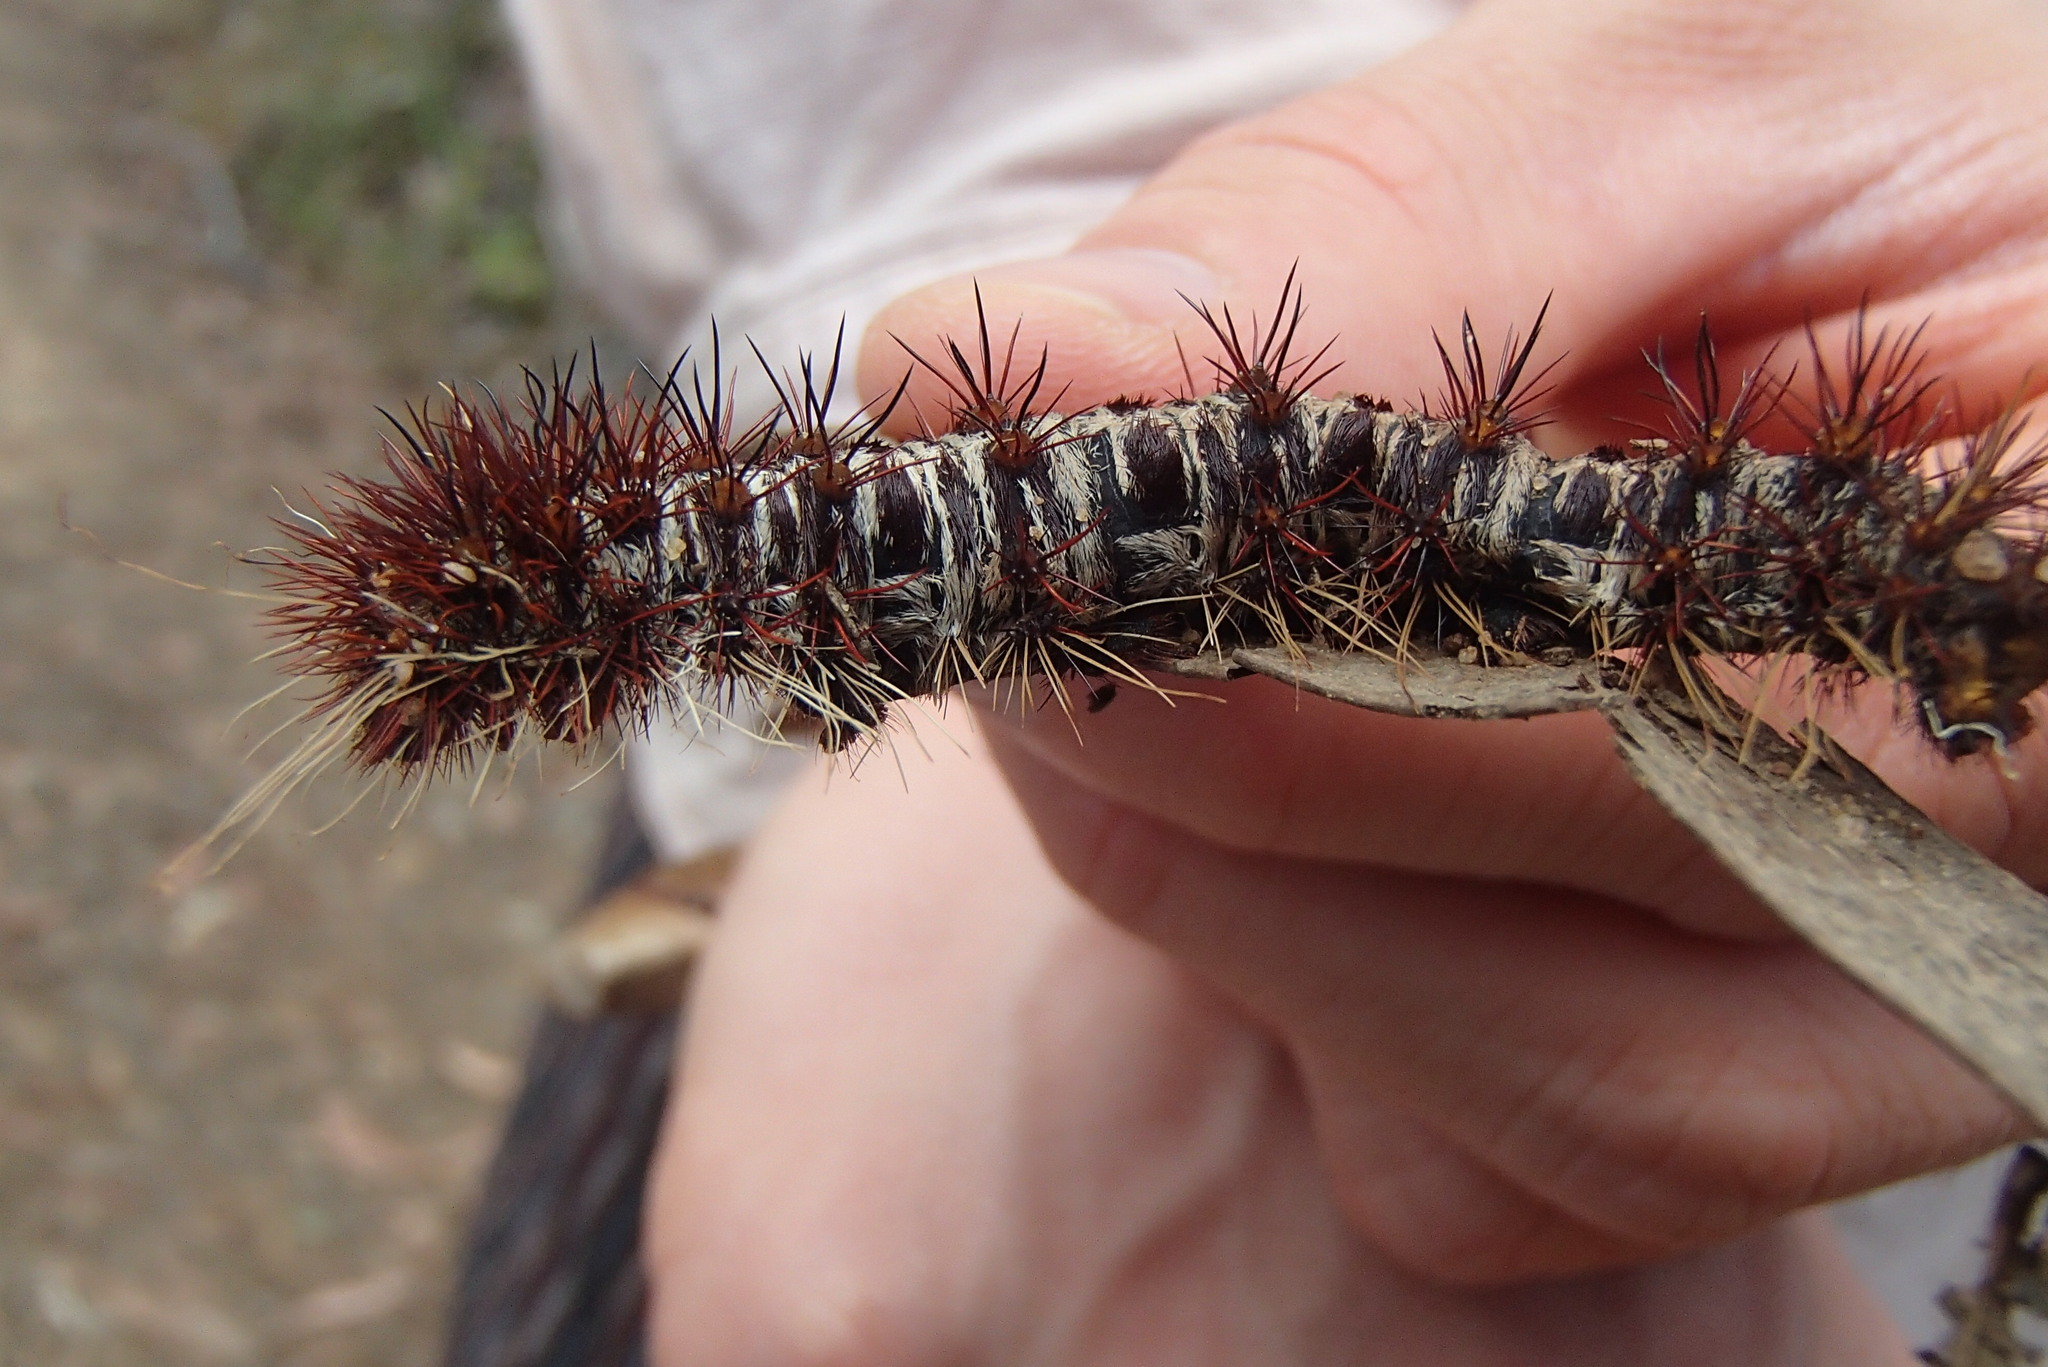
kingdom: Animalia
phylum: Arthropoda
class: Insecta
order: Lepidoptera
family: Anthelidae
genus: Chelepteryx
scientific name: Chelepteryx collesi
